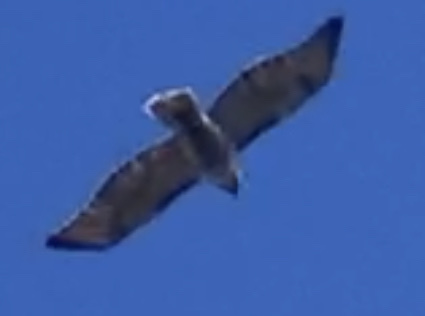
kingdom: Animalia
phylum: Chordata
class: Aves
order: Accipitriformes
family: Accipitridae
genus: Buteo
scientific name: Buteo jamaicensis
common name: Red-tailed hawk
